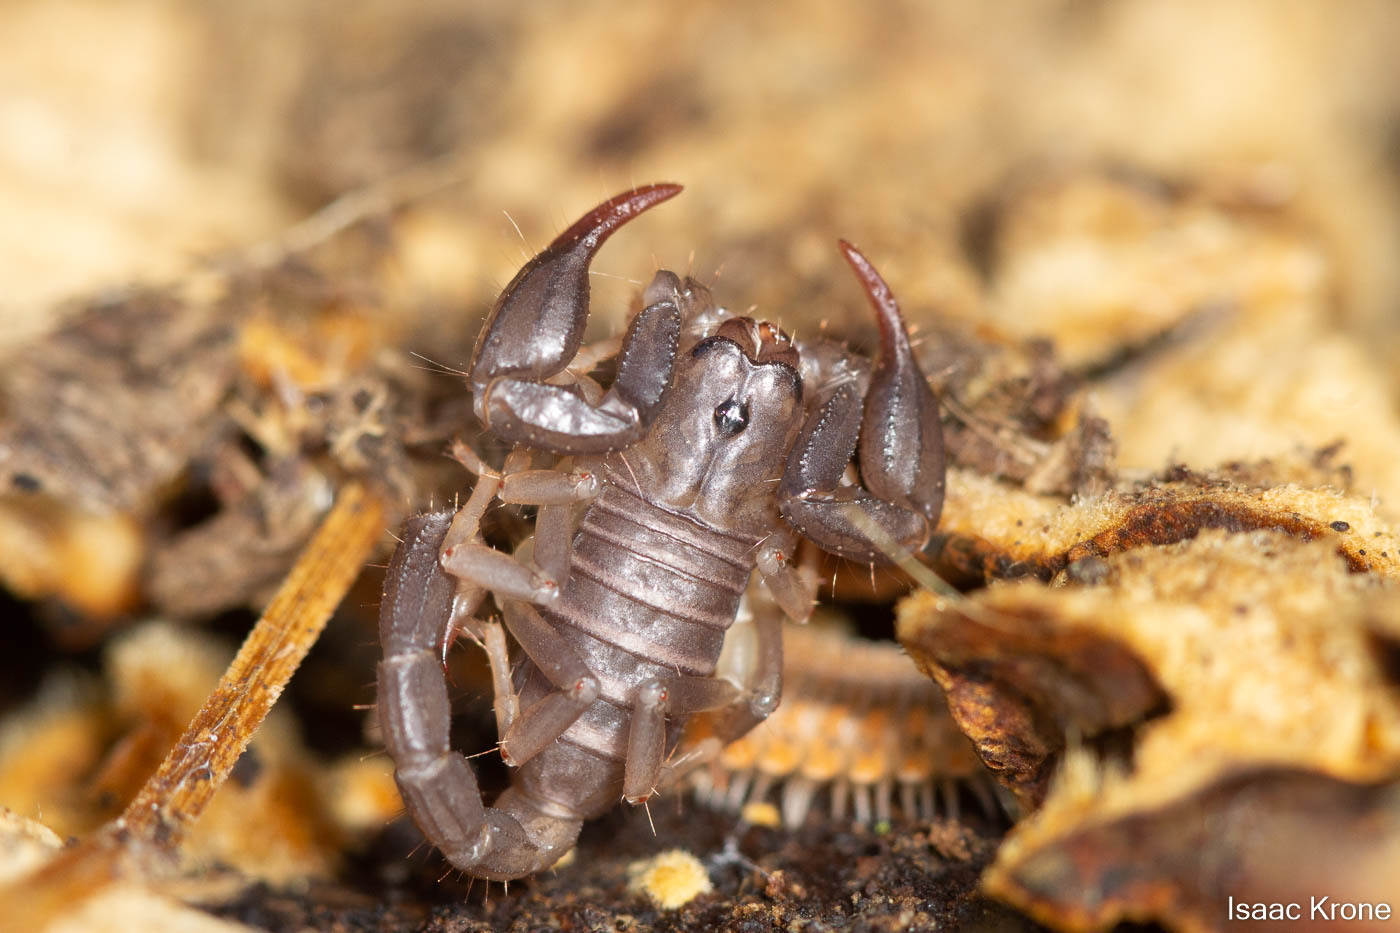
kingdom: Animalia
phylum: Arthropoda
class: Arachnida
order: Scorpiones
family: Chactidae
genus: Uroctonus
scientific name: Uroctonus mordax
